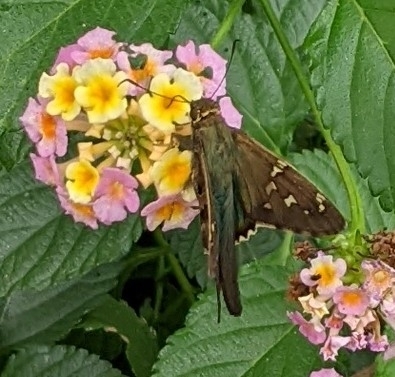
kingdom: Animalia
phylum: Arthropoda
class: Insecta
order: Lepidoptera
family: Hesperiidae
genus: Urbanus
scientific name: Urbanus proteus
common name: Long-tailed skipper
